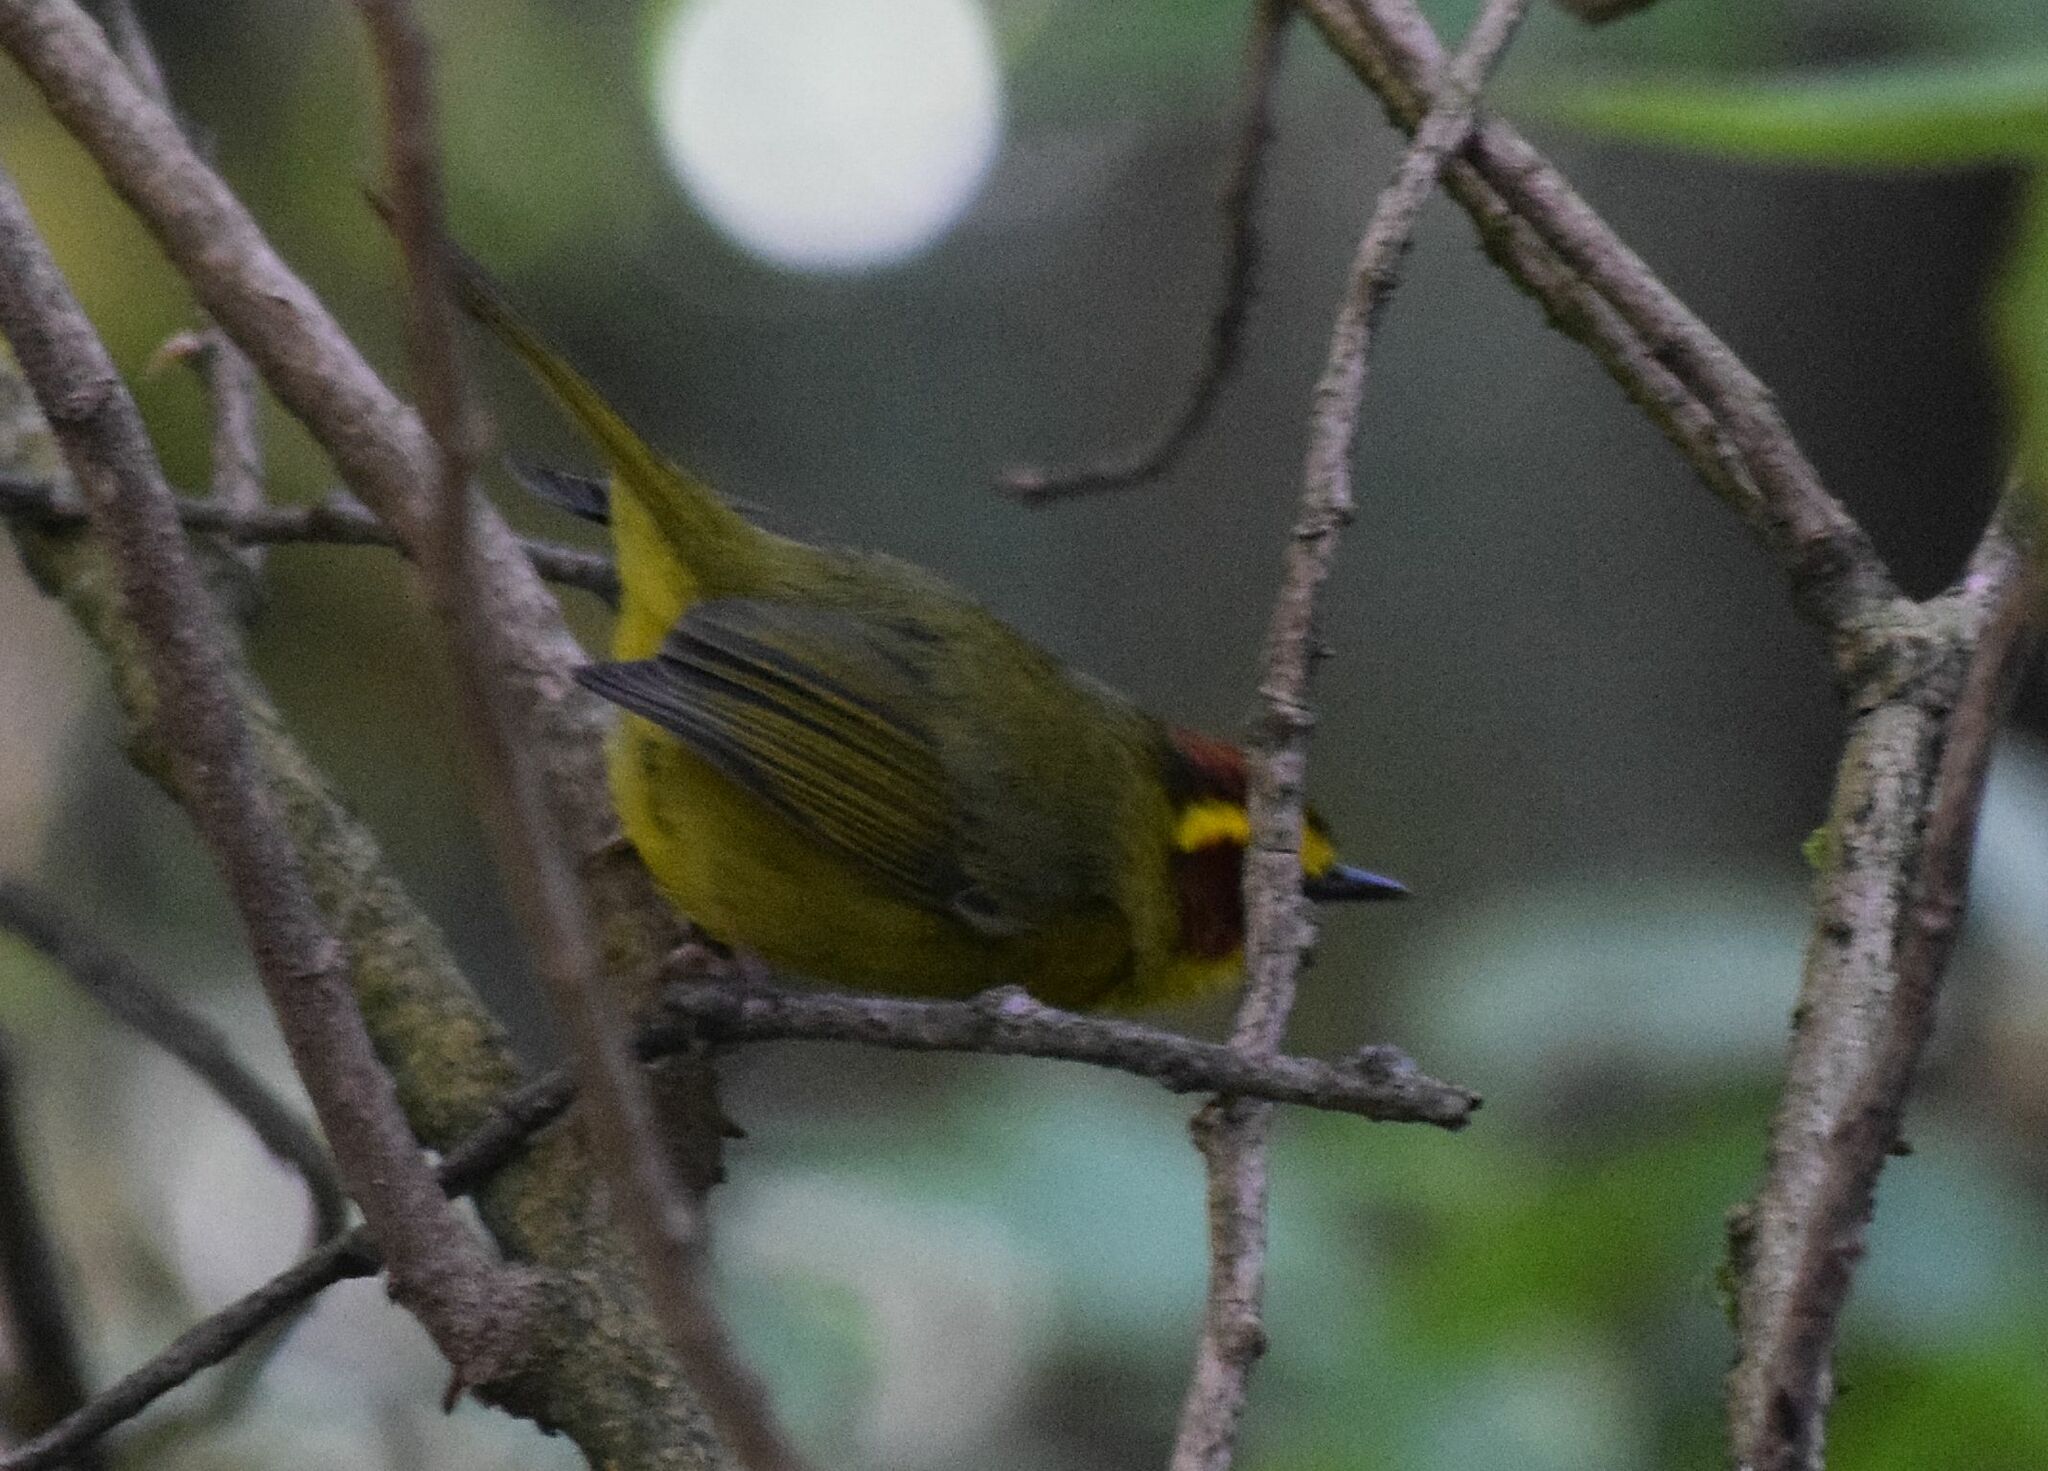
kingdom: Animalia
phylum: Chordata
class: Aves
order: Passeriformes
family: Parulidae
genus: Basileuterus
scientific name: Basileuterus belli
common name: Golden-browed warbler
